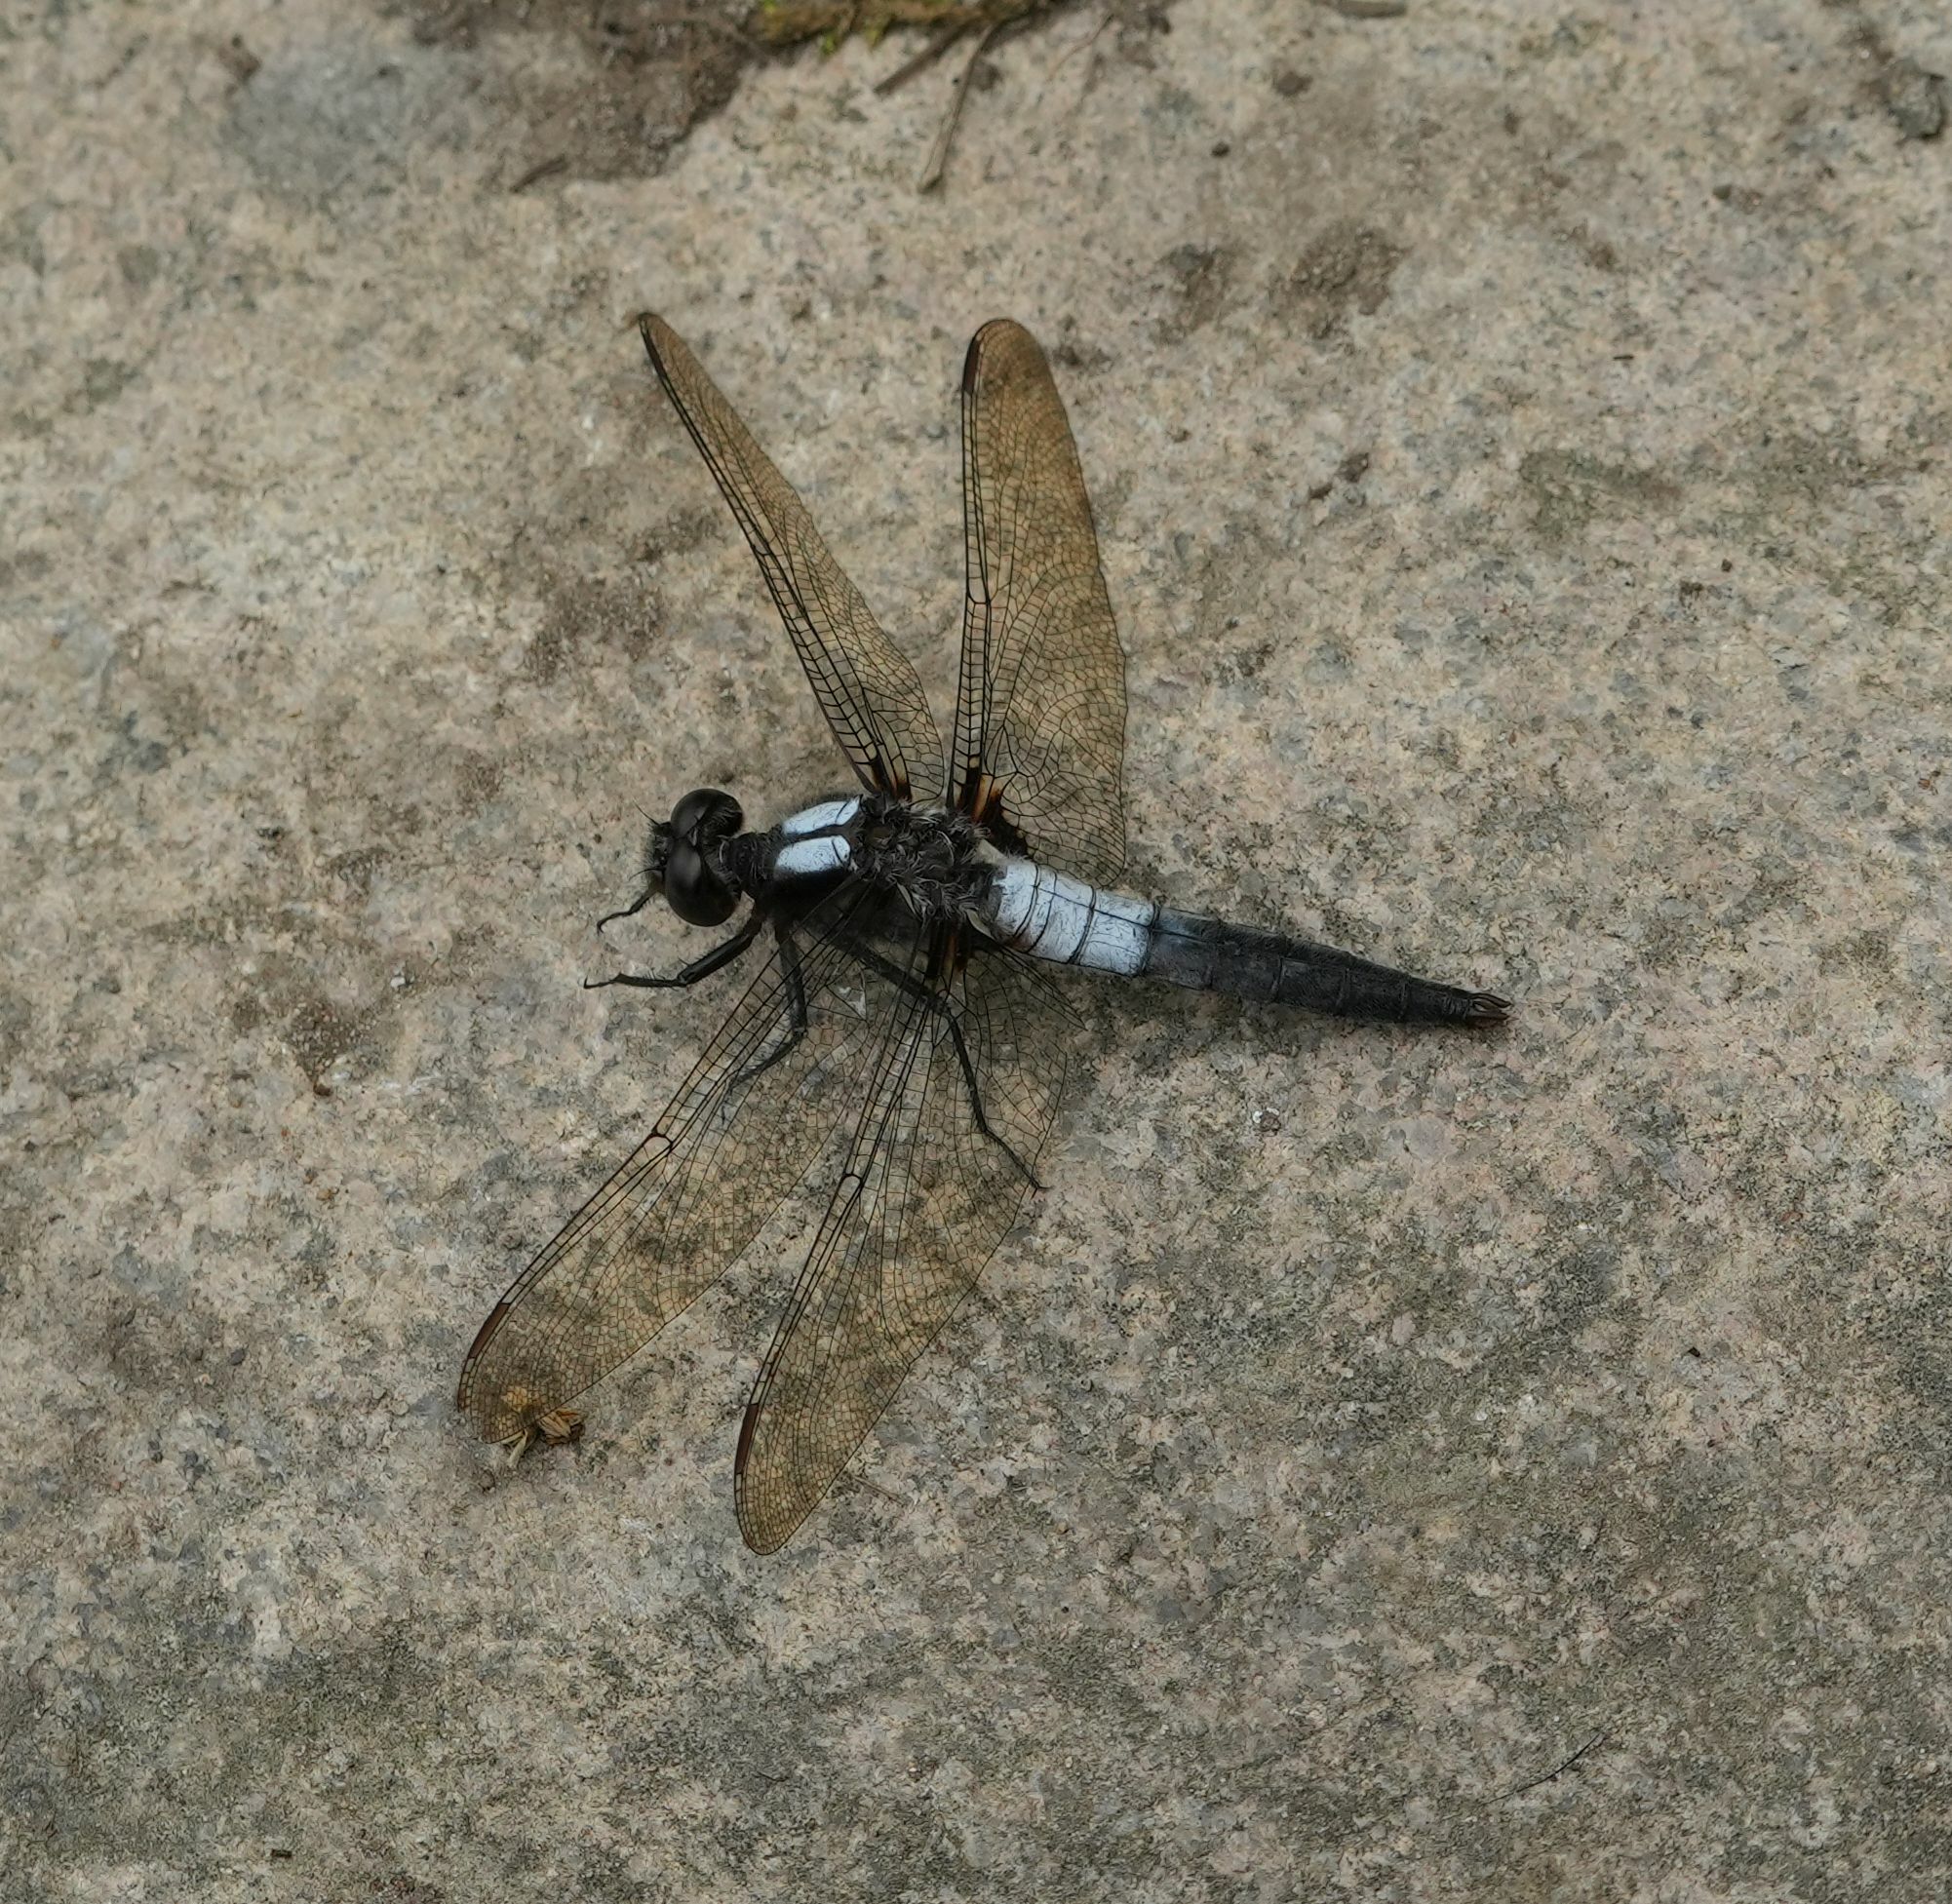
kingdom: Animalia
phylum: Arthropoda
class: Insecta
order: Odonata
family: Libellulidae
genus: Ladona
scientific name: Ladona julia
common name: Chalk-fronted corporal
